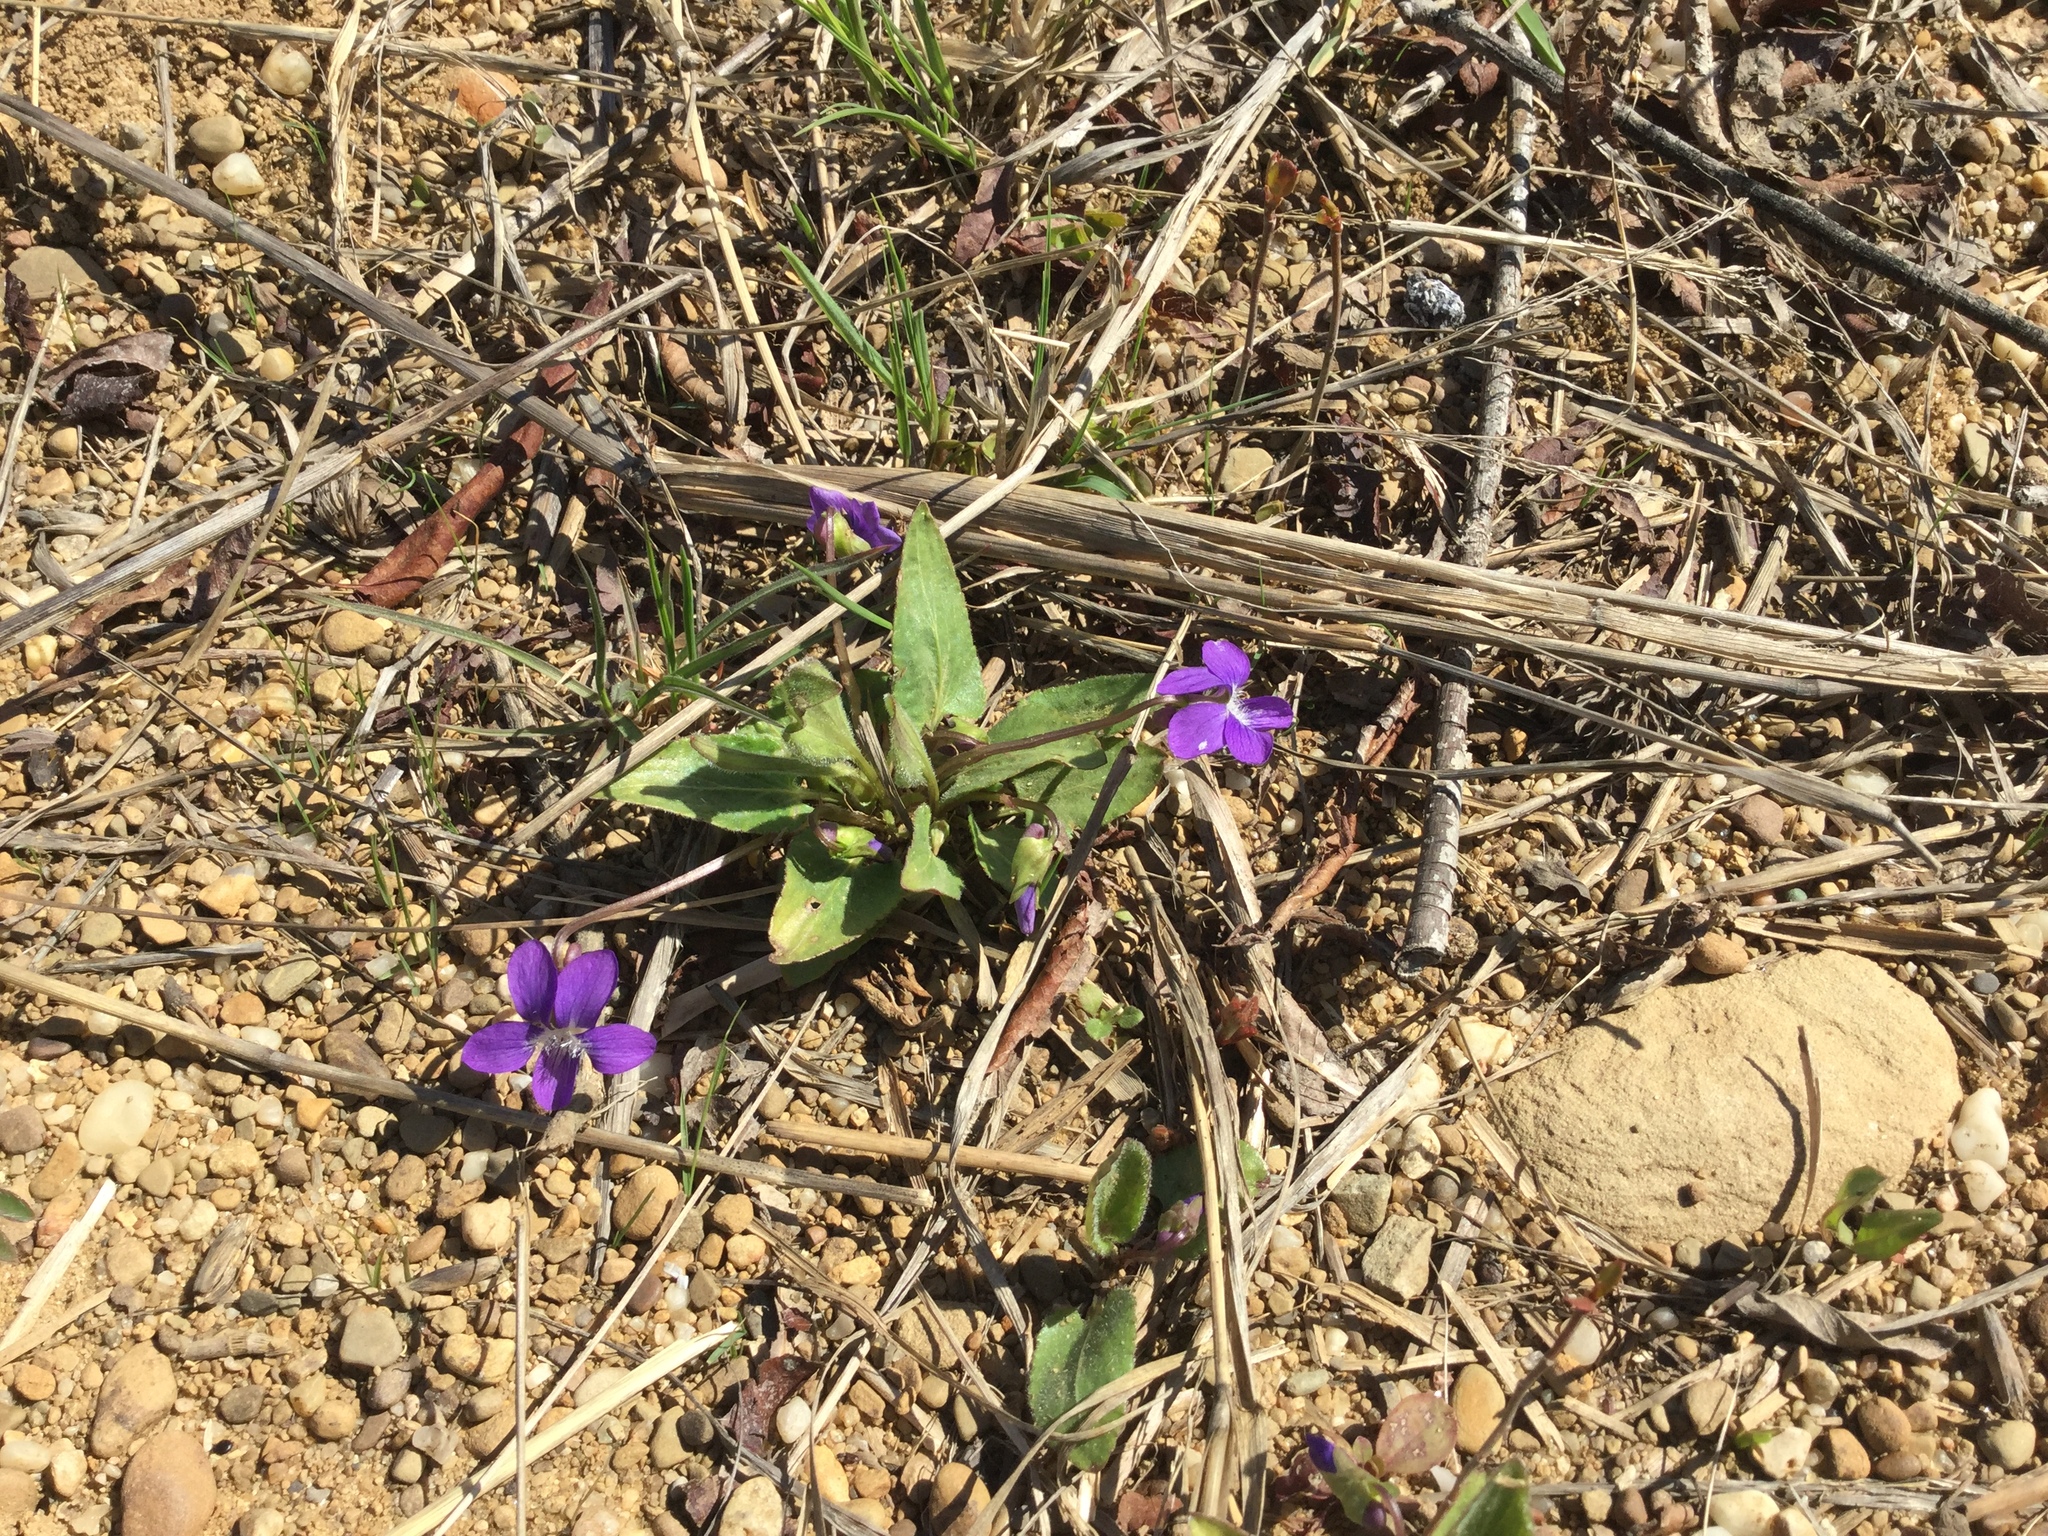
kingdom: Plantae
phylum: Tracheophyta
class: Magnoliopsida
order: Malpighiales
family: Violaceae
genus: Viola
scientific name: Viola sagittata
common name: Arrowhead violet
